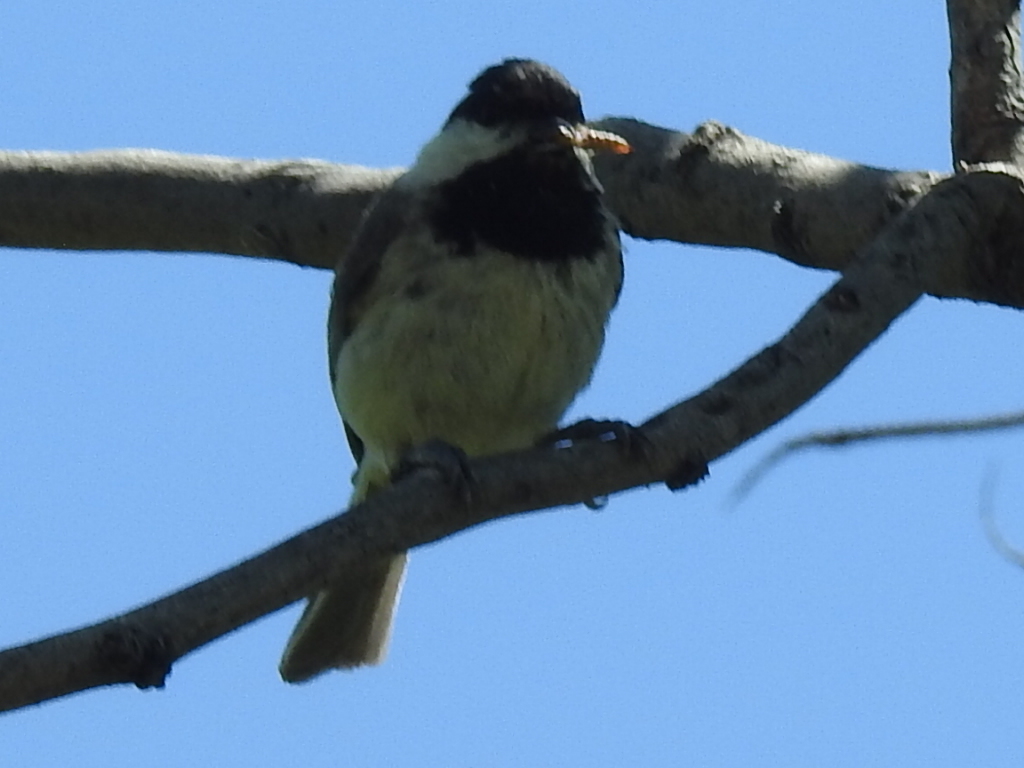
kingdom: Animalia
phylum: Chordata
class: Aves
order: Passeriformes
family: Paridae
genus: Poecile
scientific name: Poecile carolinensis
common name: Carolina chickadee
